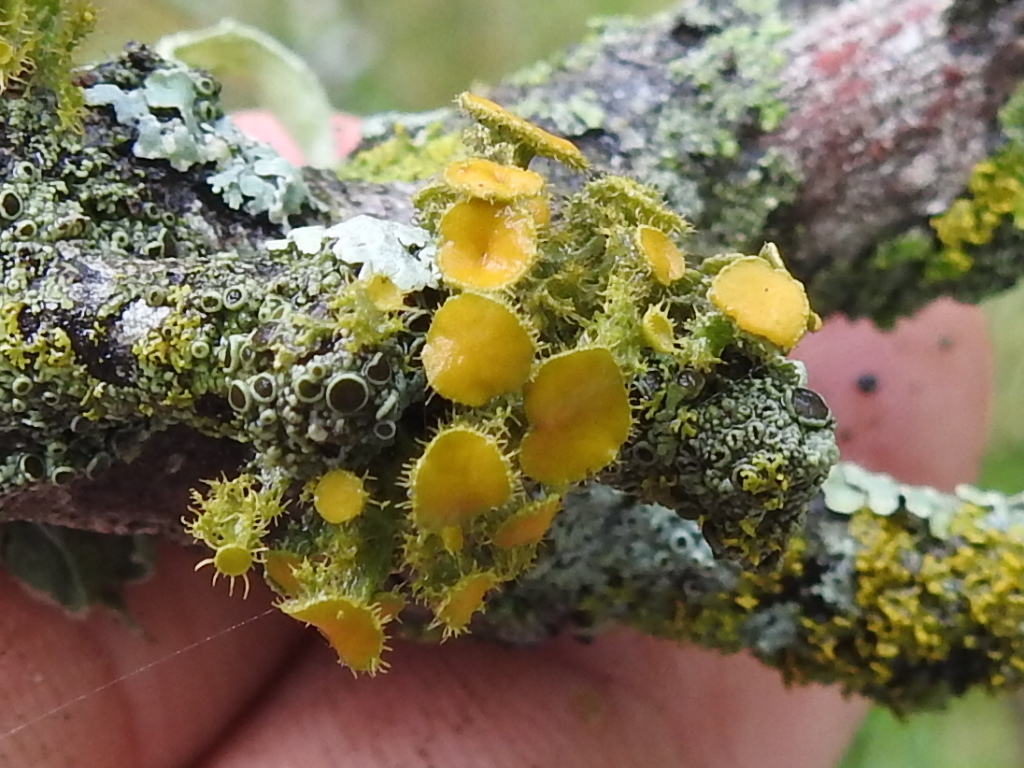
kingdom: Fungi
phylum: Ascomycota
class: Lecanoromycetes
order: Teloschistales
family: Teloschistaceae
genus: Niorma
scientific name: Niorma chrysophthalma
